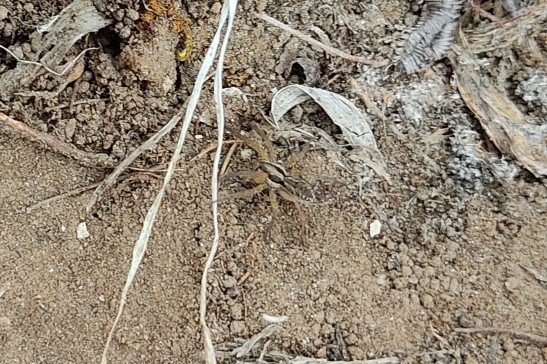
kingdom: Animalia
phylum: Arthropoda
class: Arachnida
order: Araneae
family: Lycosidae
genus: Hogna
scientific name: Hogna radiata
